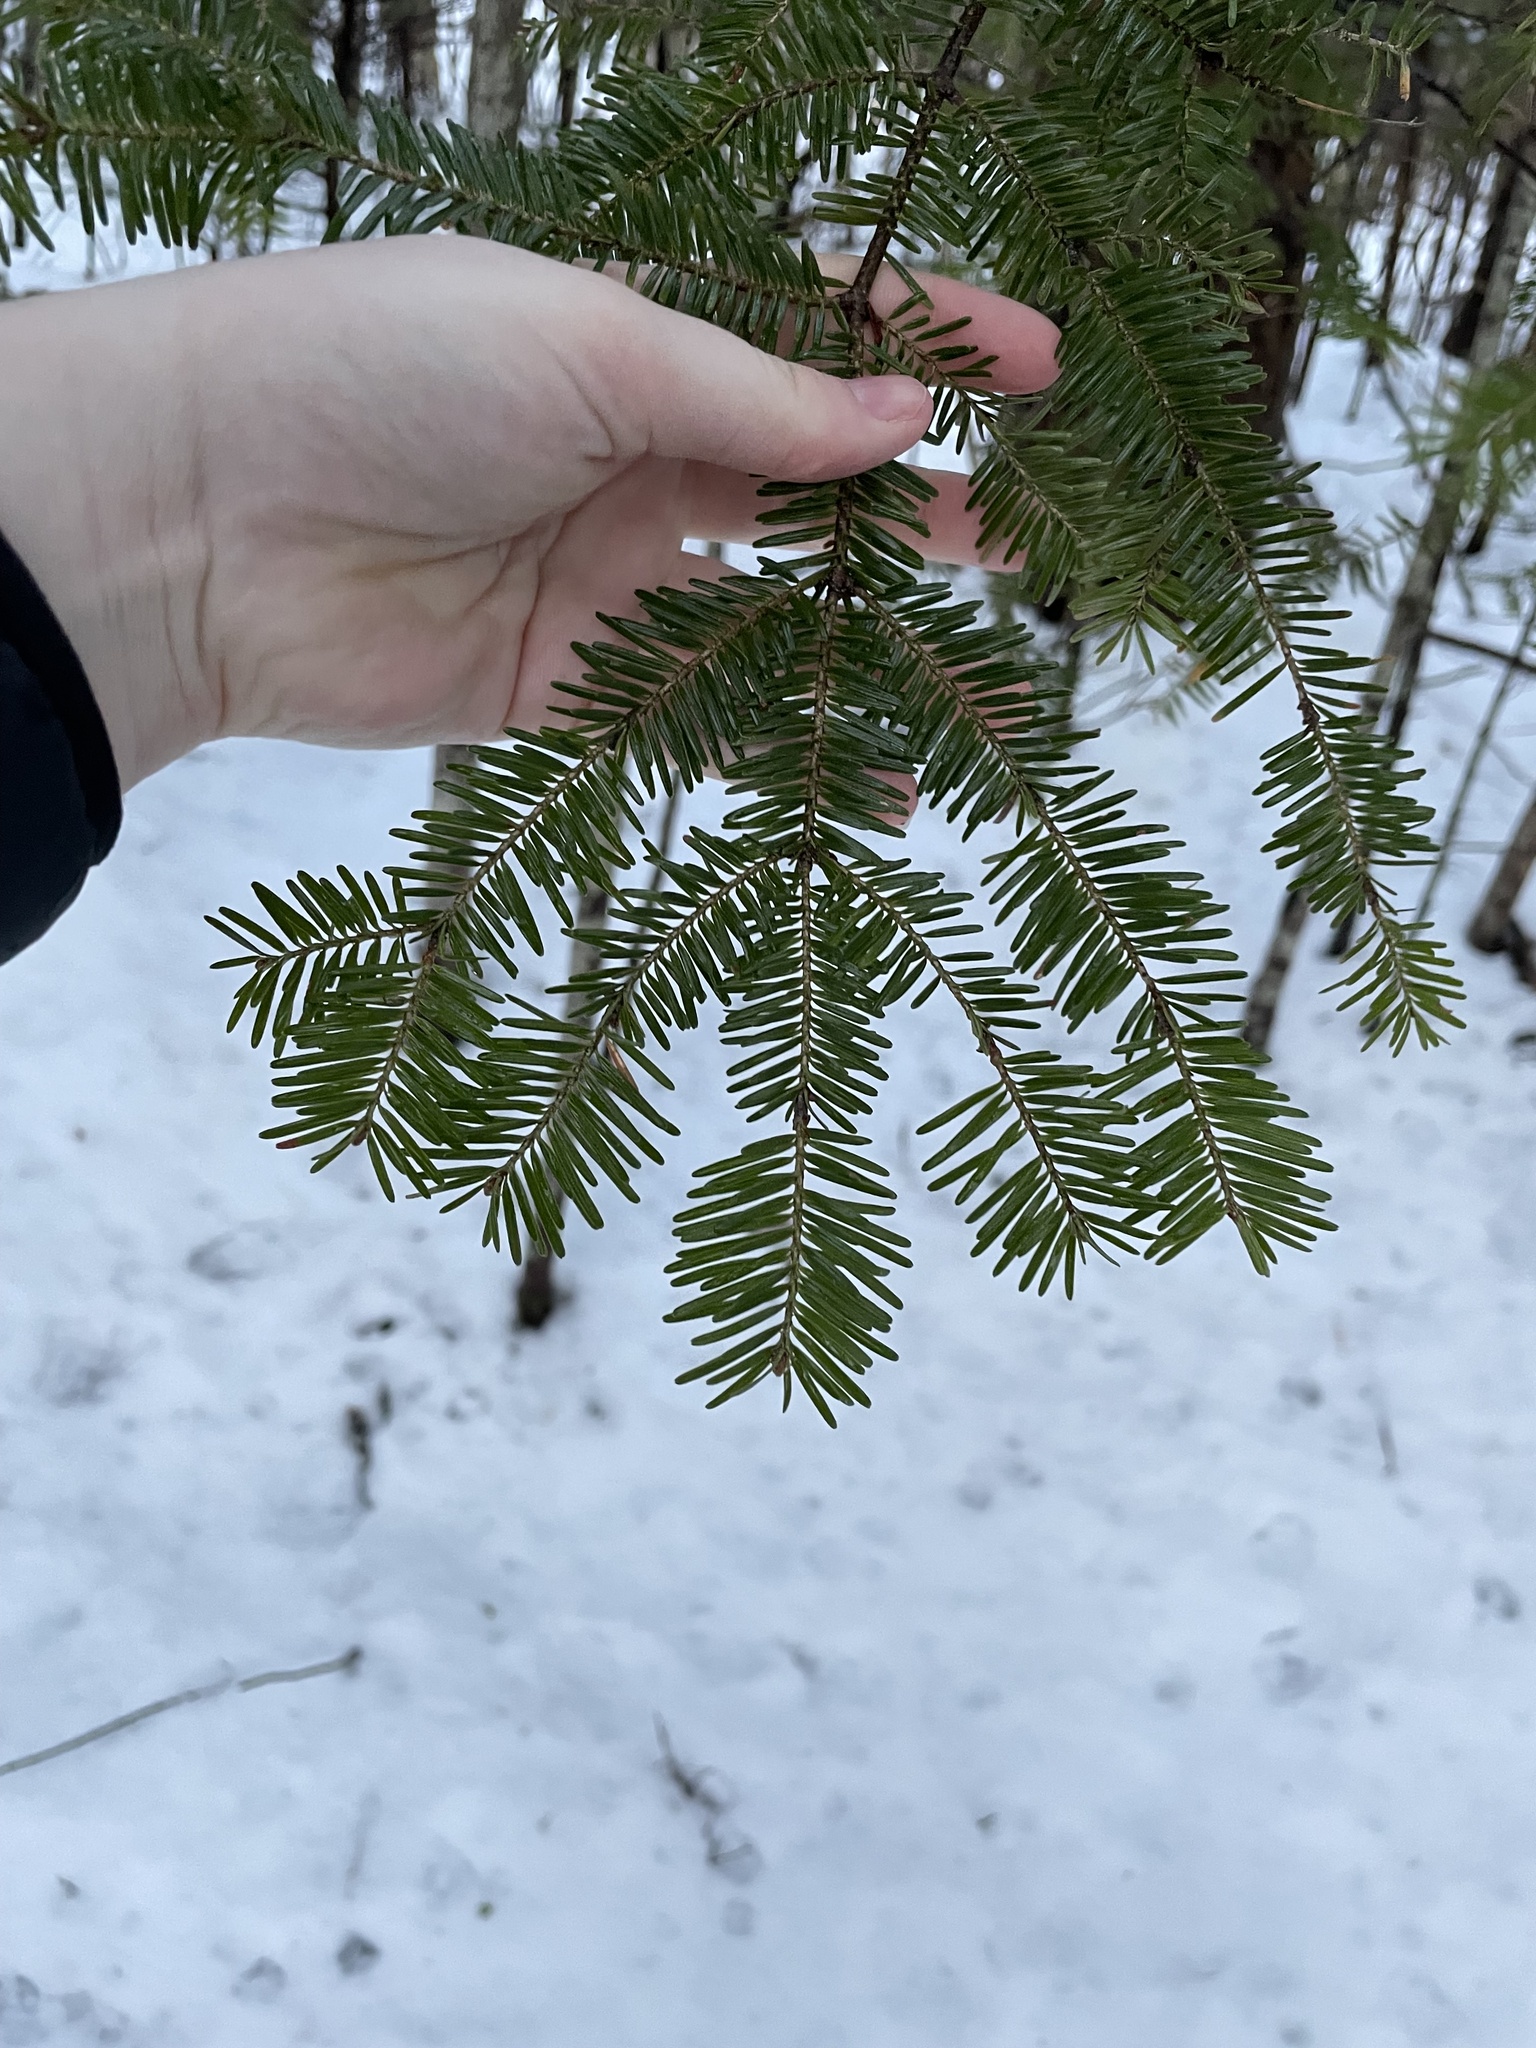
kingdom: Plantae
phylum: Tracheophyta
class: Pinopsida
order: Pinales
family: Pinaceae
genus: Abies
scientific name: Abies balsamea
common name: Balsam fir
